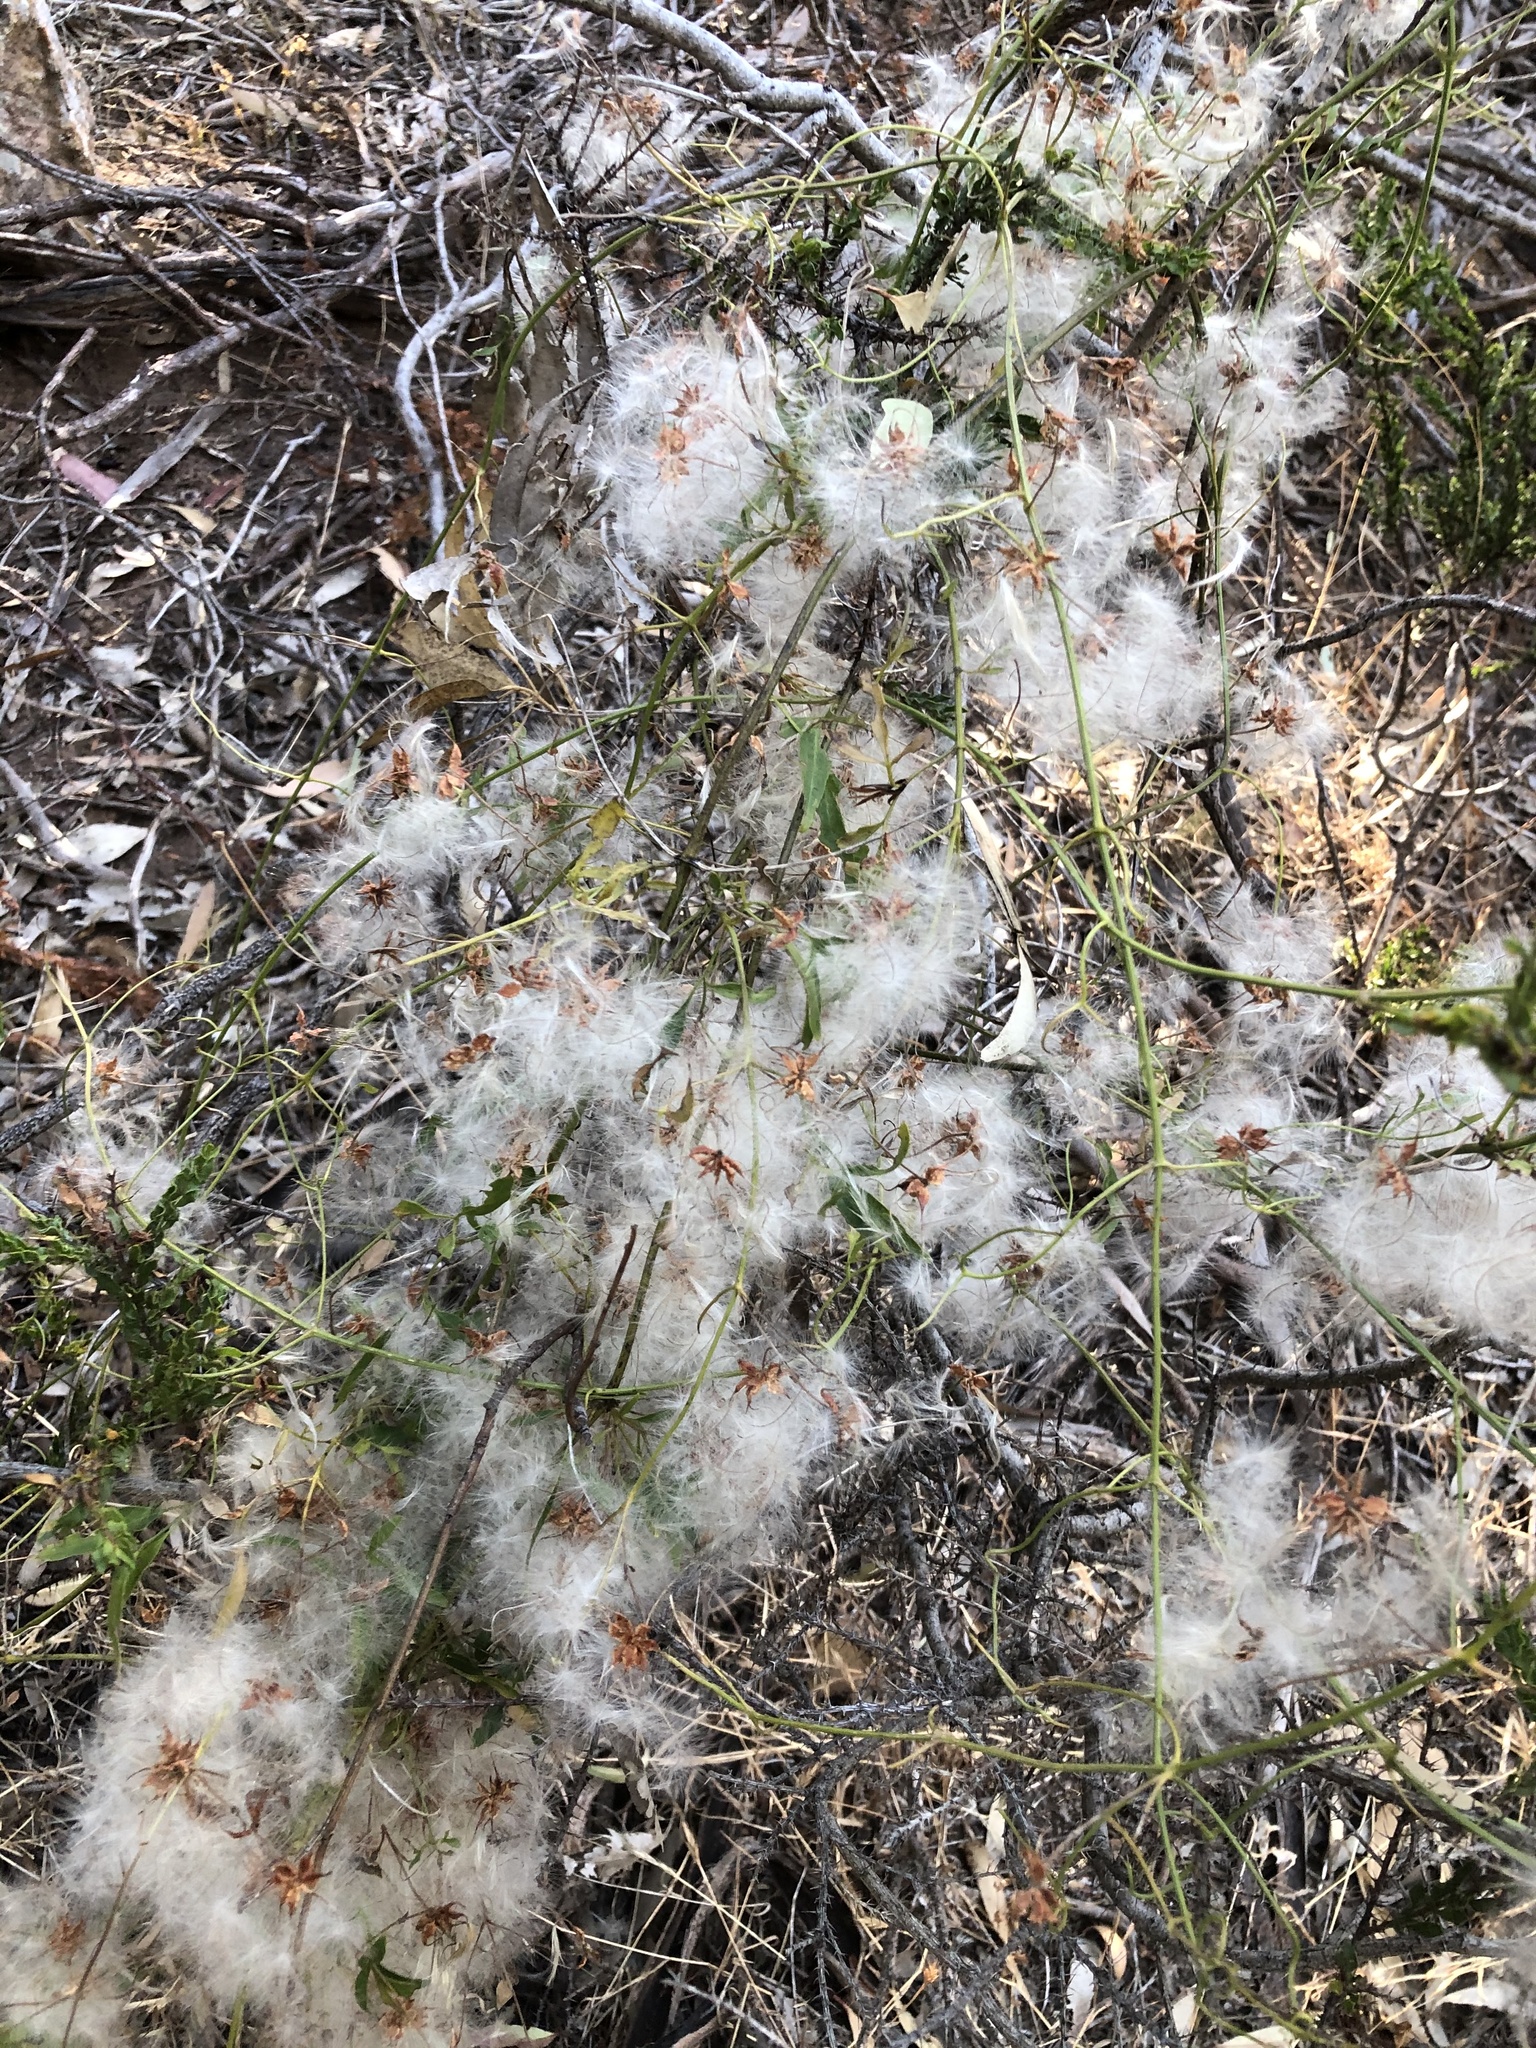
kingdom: Plantae
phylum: Tracheophyta
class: Magnoliopsida
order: Ranunculales
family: Ranunculaceae
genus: Clematis
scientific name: Clematis microphylla
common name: Headachevine
